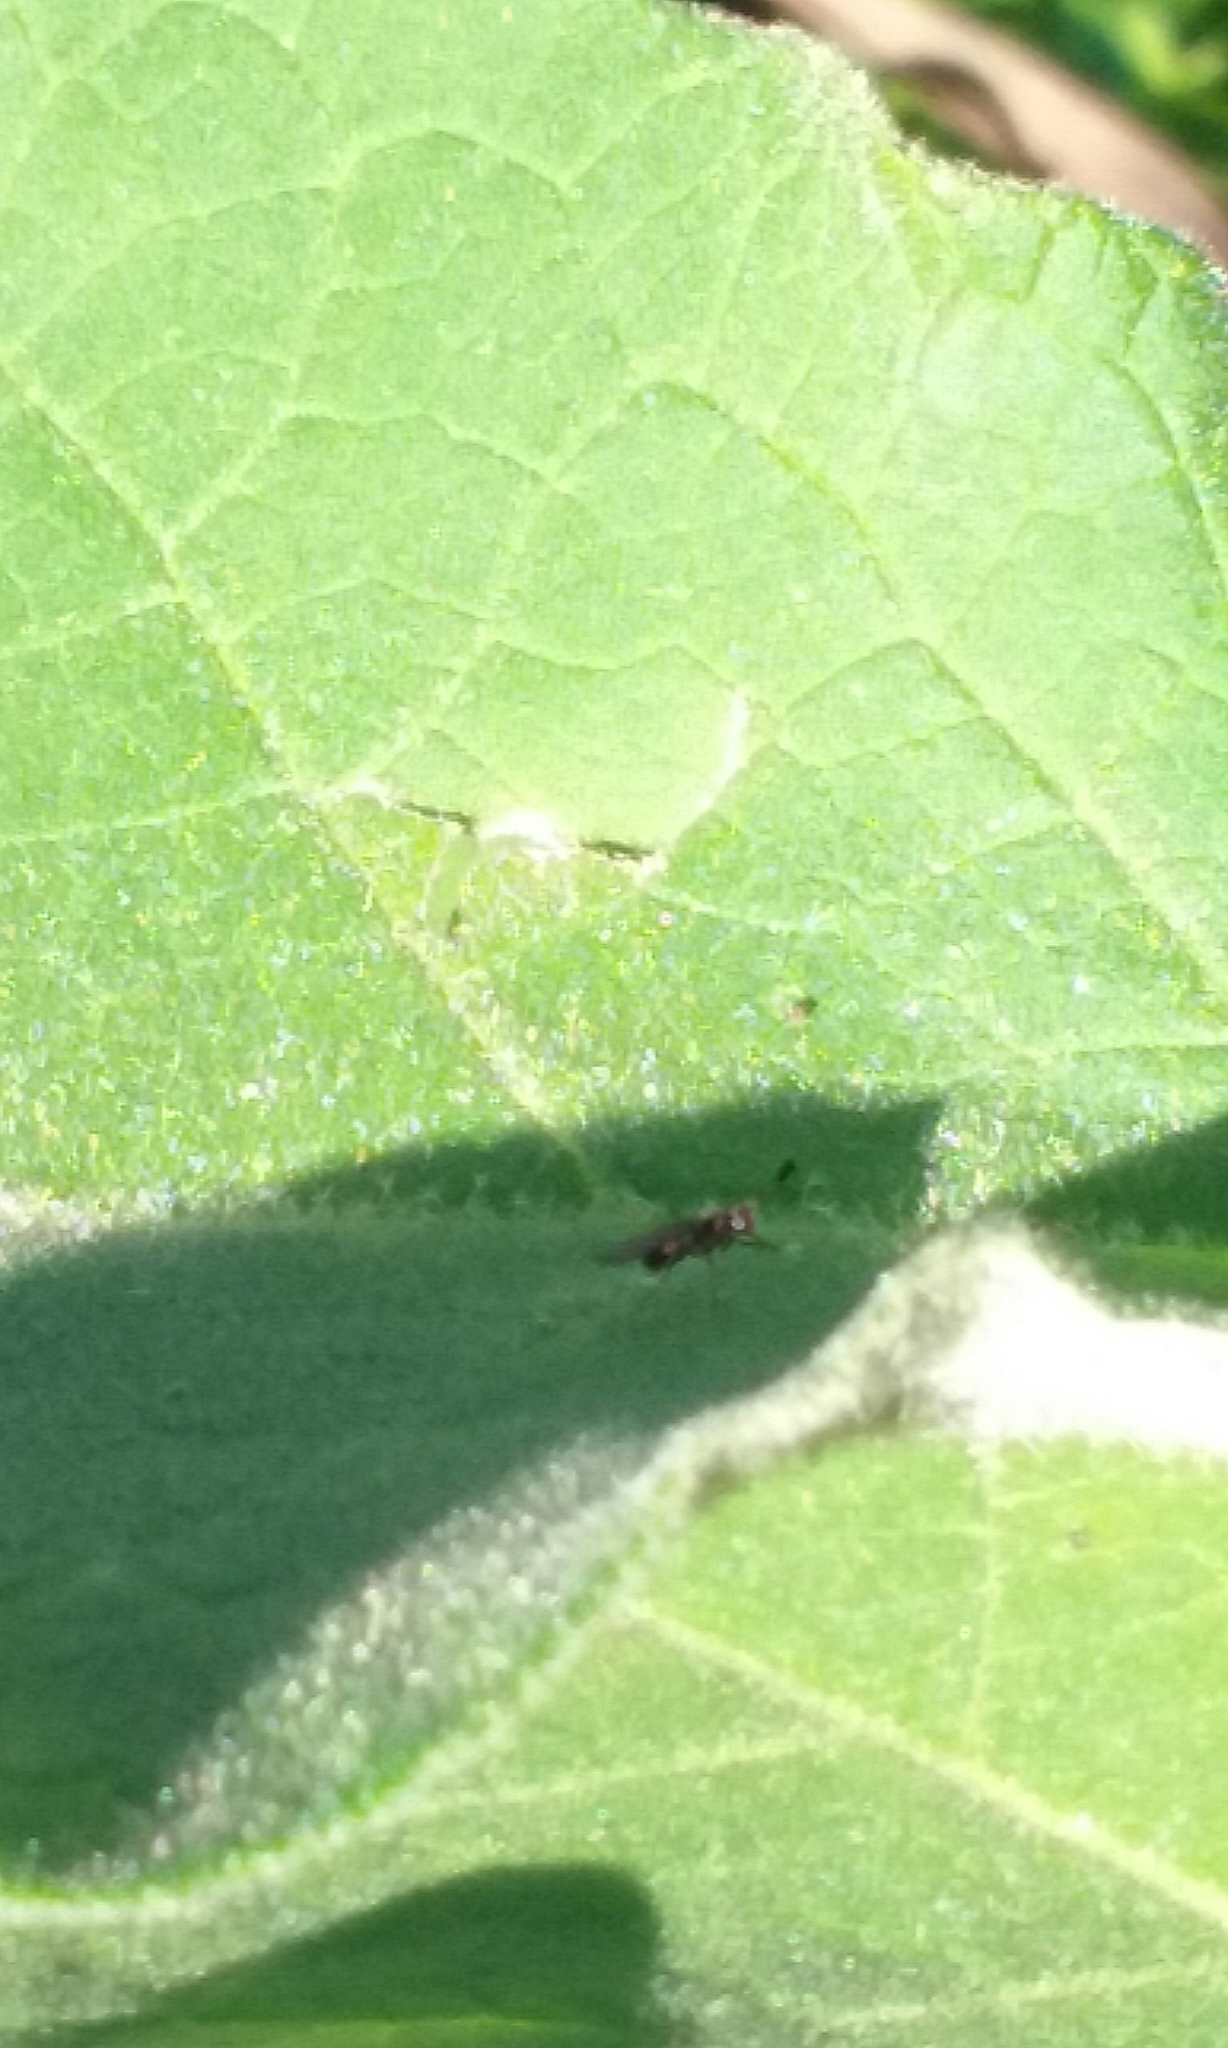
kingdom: Animalia
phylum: Arthropoda
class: Insecta
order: Diptera
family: Ephydridae
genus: Hydrellia
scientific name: Hydrellia tritici
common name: Shore fly
